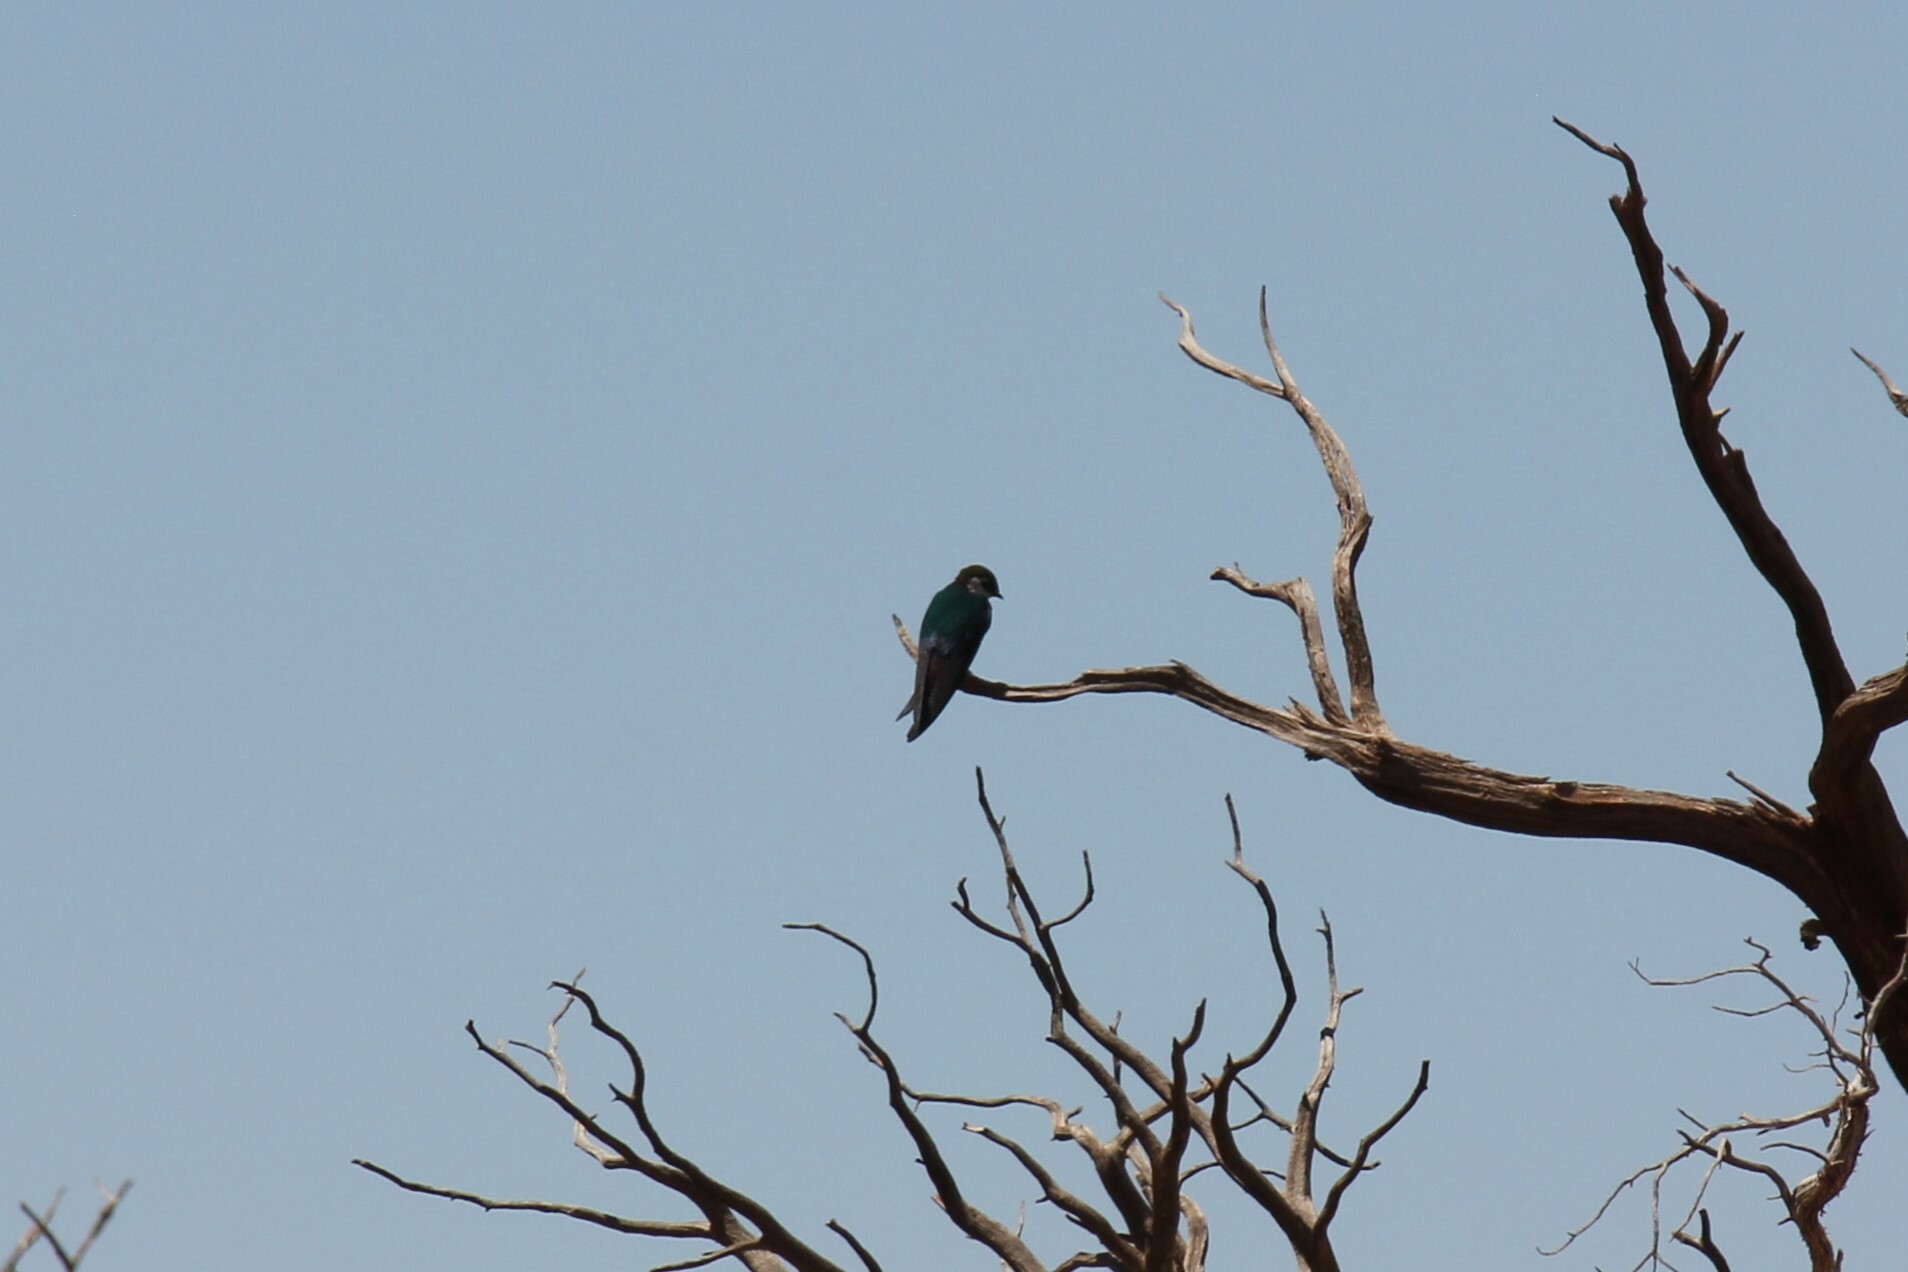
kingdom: Animalia
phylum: Chordata
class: Aves
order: Passeriformes
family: Hirundinidae
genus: Tachycineta
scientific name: Tachycineta thalassina
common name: Violet-green swallow
